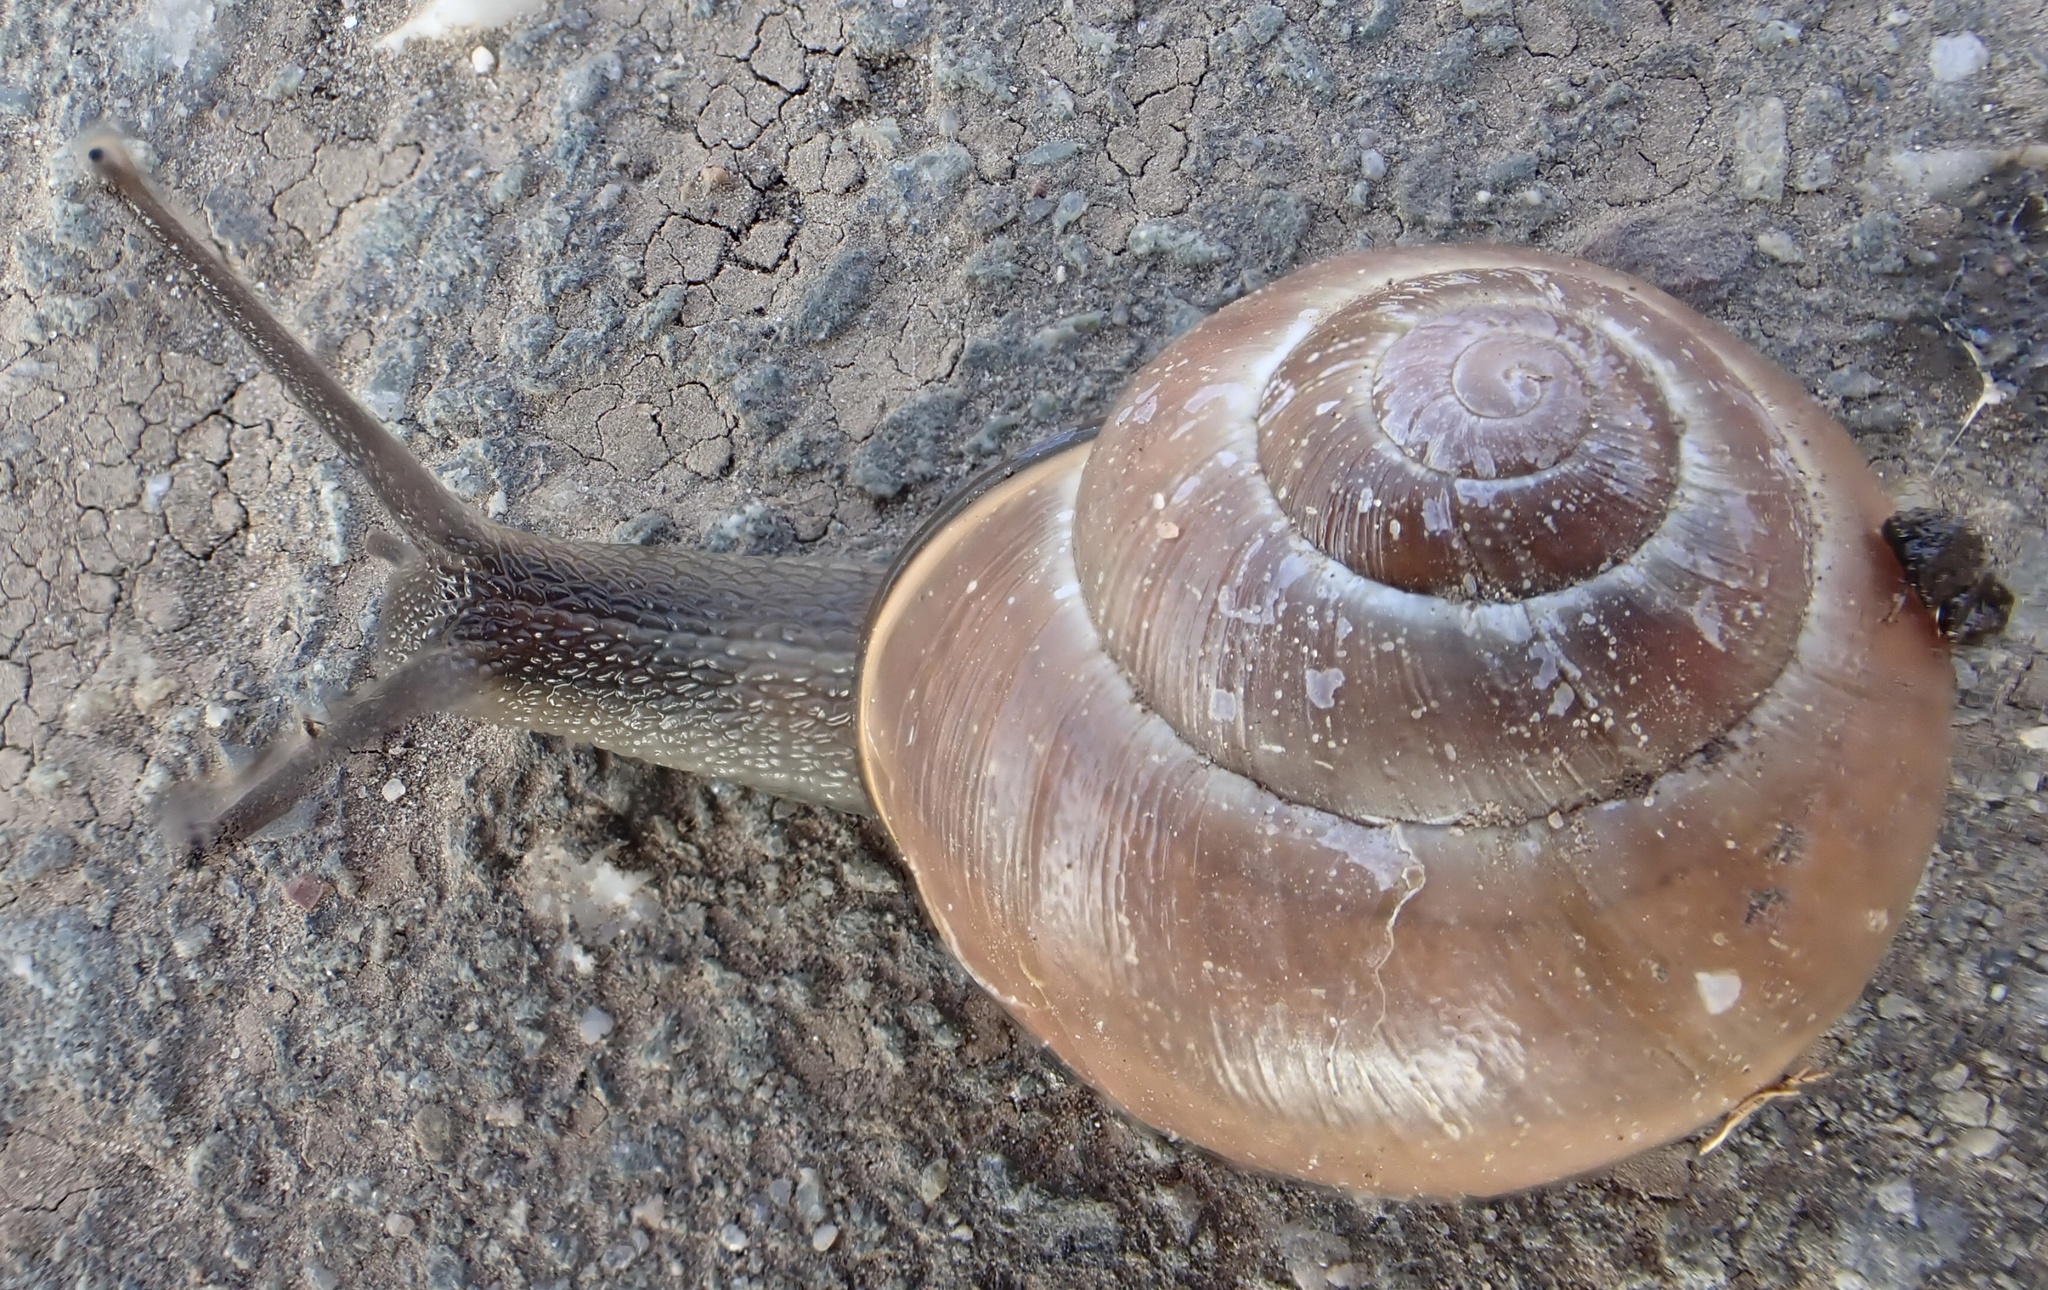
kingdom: Animalia
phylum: Mollusca
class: Gastropoda
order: Stylommatophora
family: Helicidae
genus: Cepaea
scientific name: Cepaea nemoralis
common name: Grovesnail
